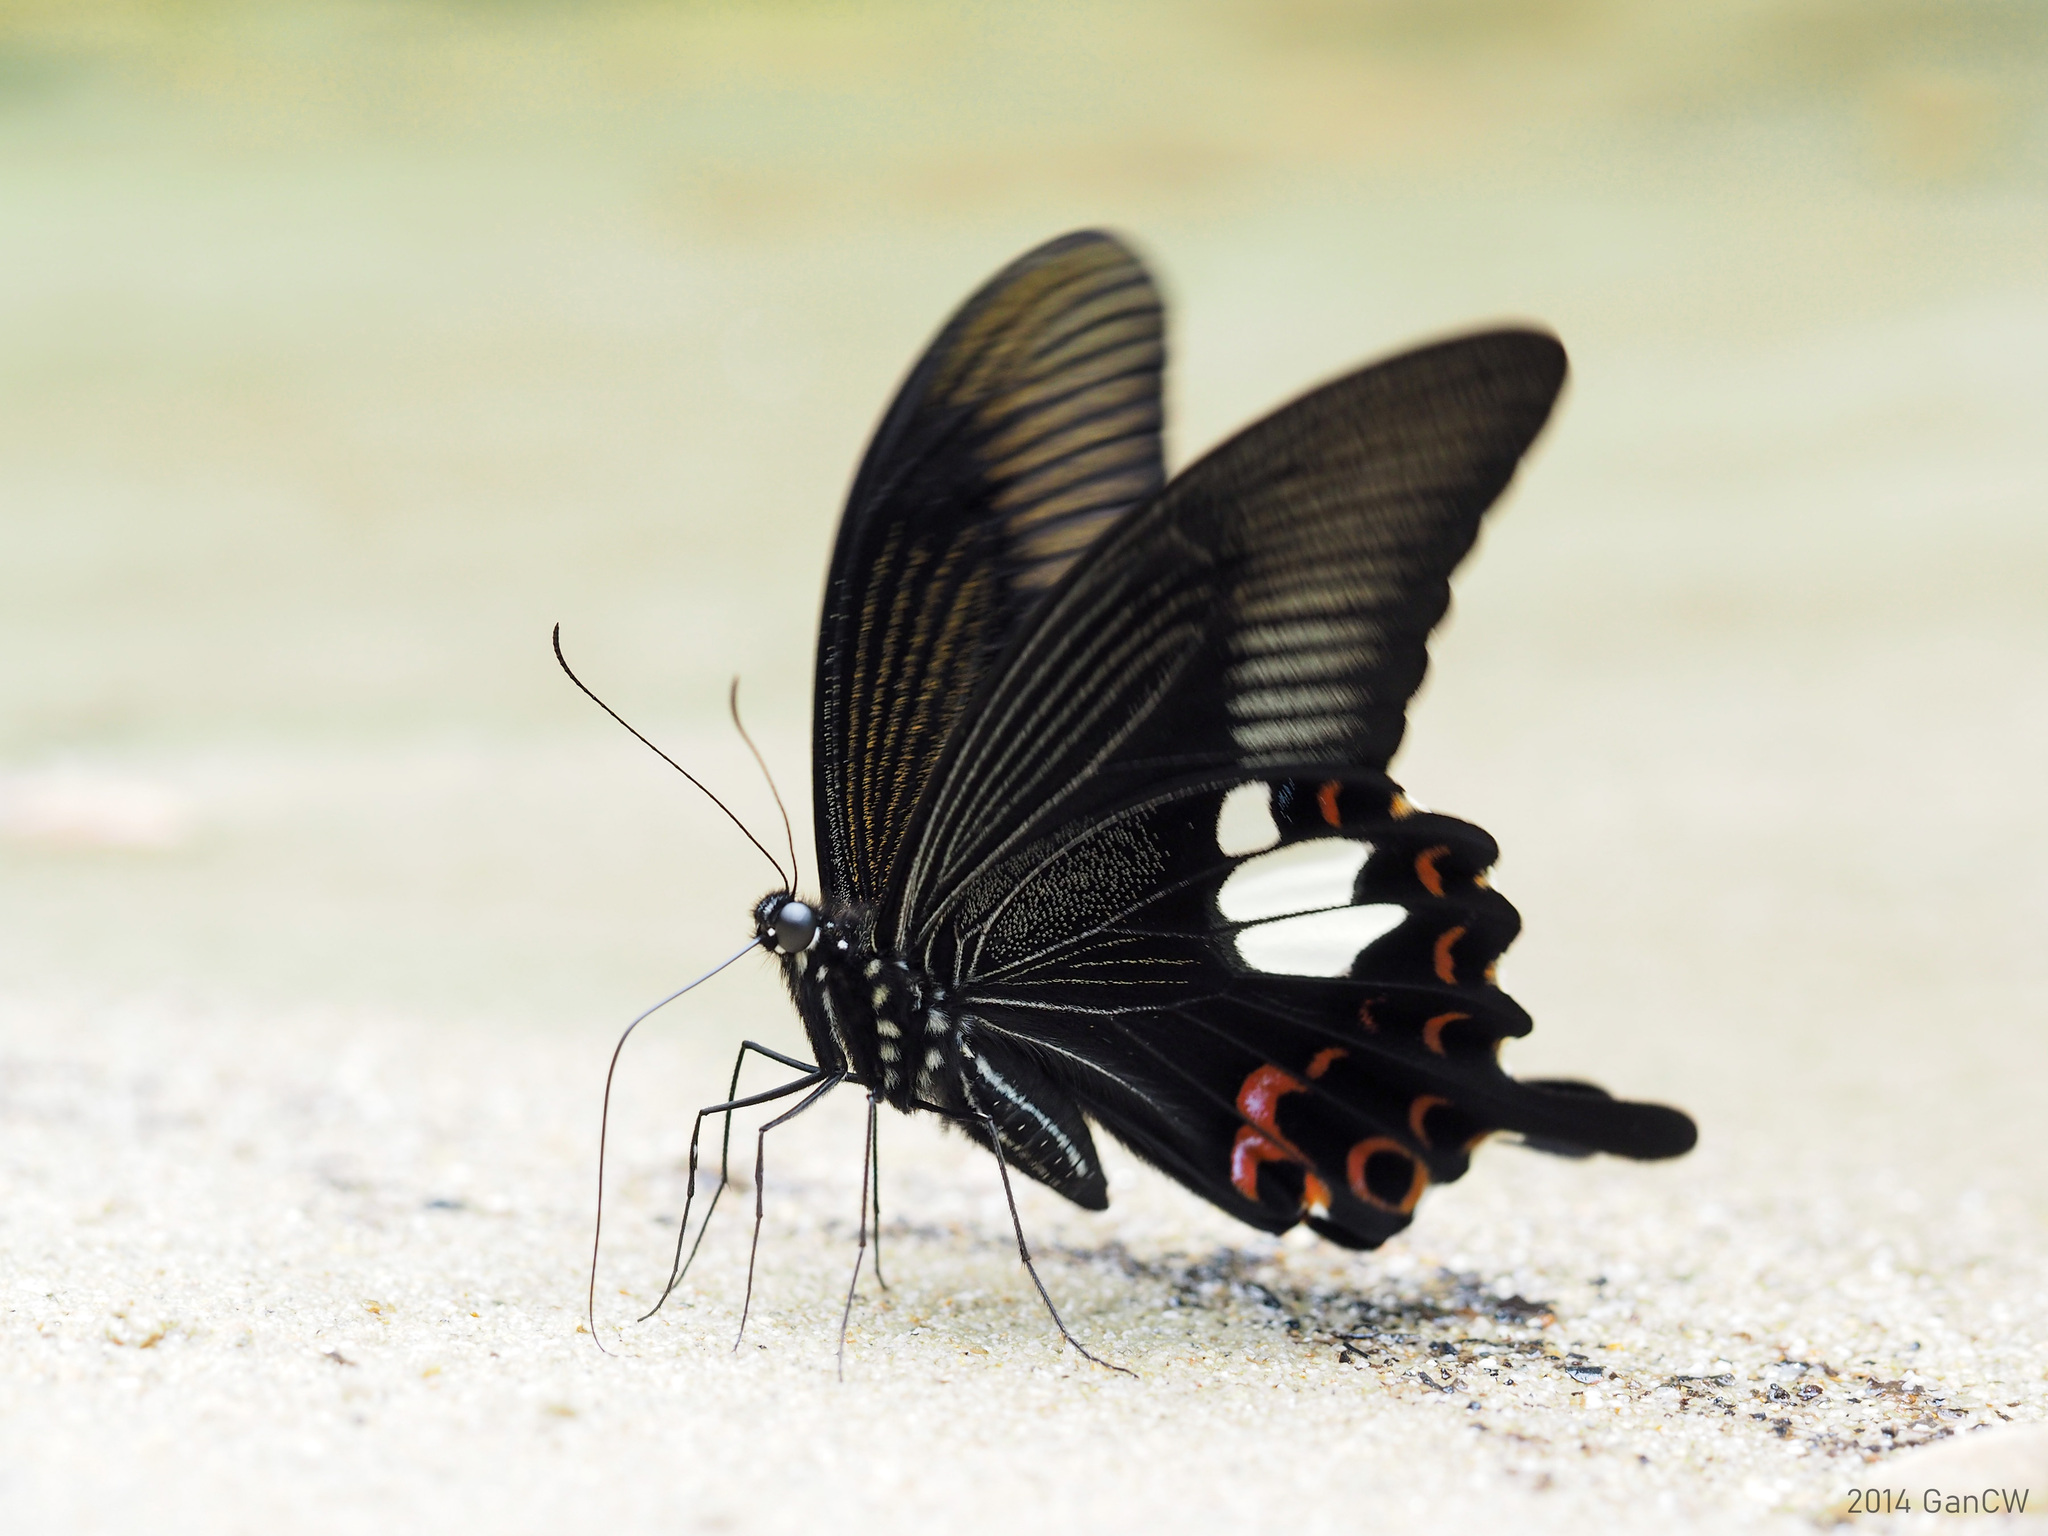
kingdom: Animalia
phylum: Arthropoda
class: Insecta
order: Lepidoptera
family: Papilionidae
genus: Papilio
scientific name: Papilio helenus
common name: Red helen
